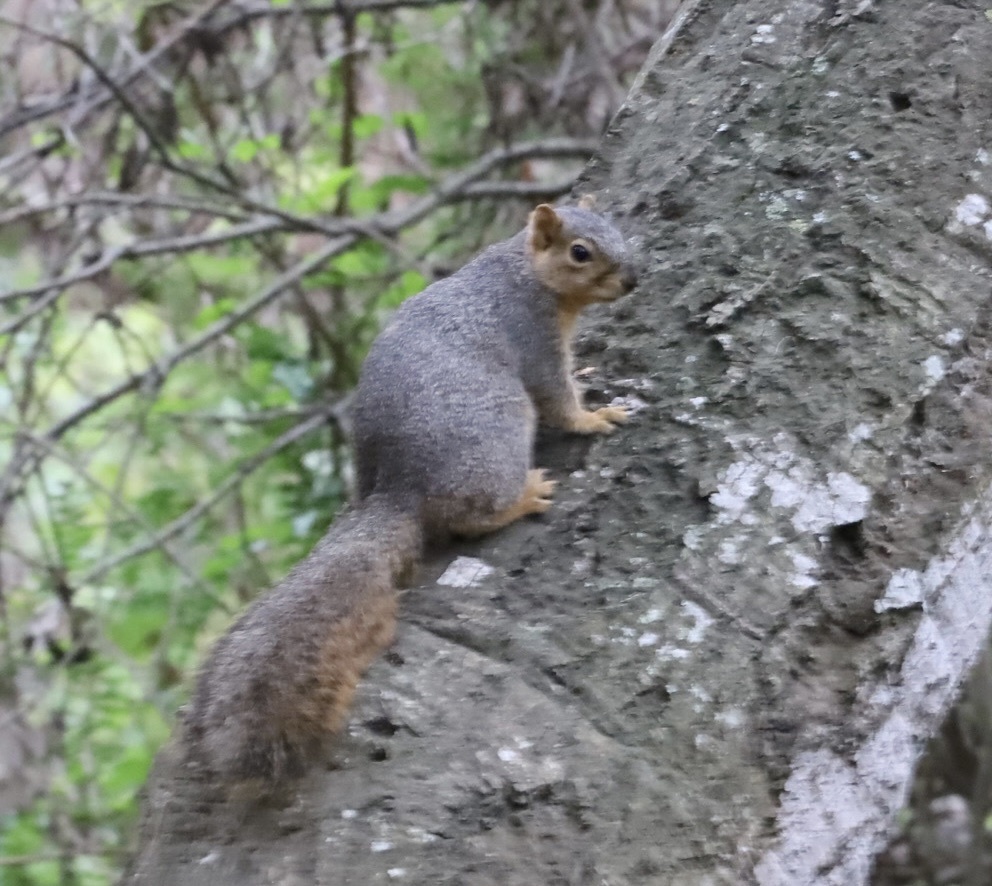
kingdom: Animalia
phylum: Chordata
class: Mammalia
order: Rodentia
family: Sciuridae
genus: Sciurus
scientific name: Sciurus niger
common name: Fox squirrel
